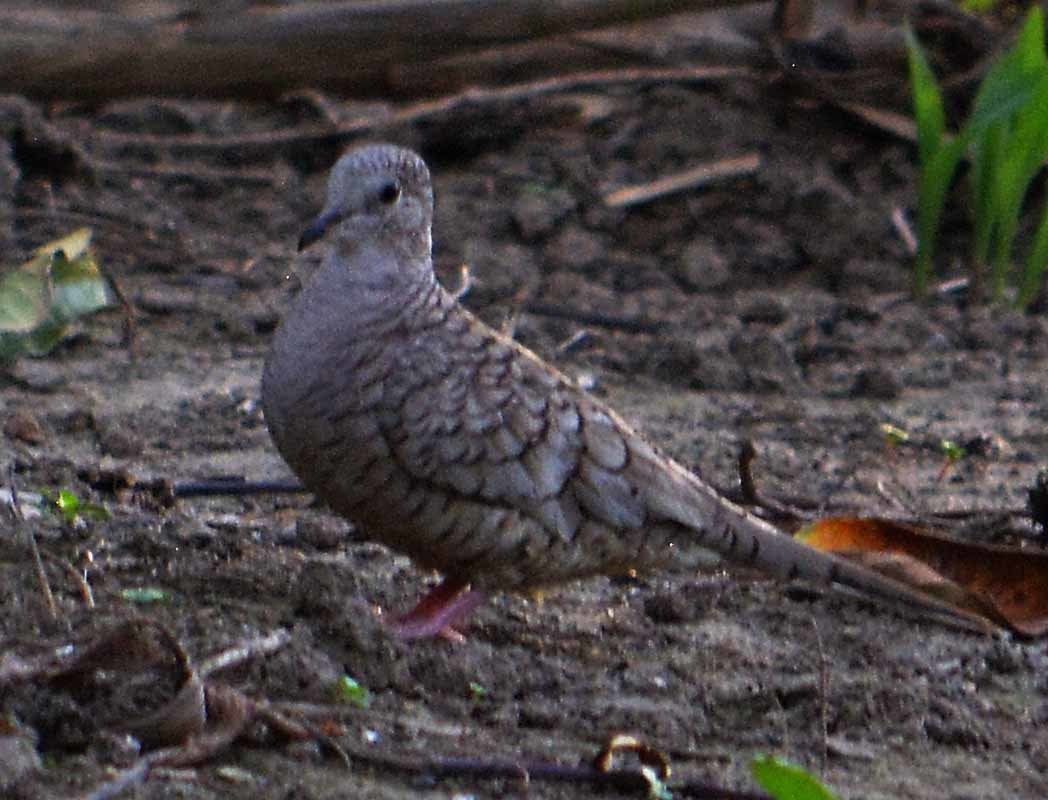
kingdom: Animalia
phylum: Chordata
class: Aves
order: Columbiformes
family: Columbidae
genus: Columbina
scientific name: Columbina inca
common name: Inca dove
